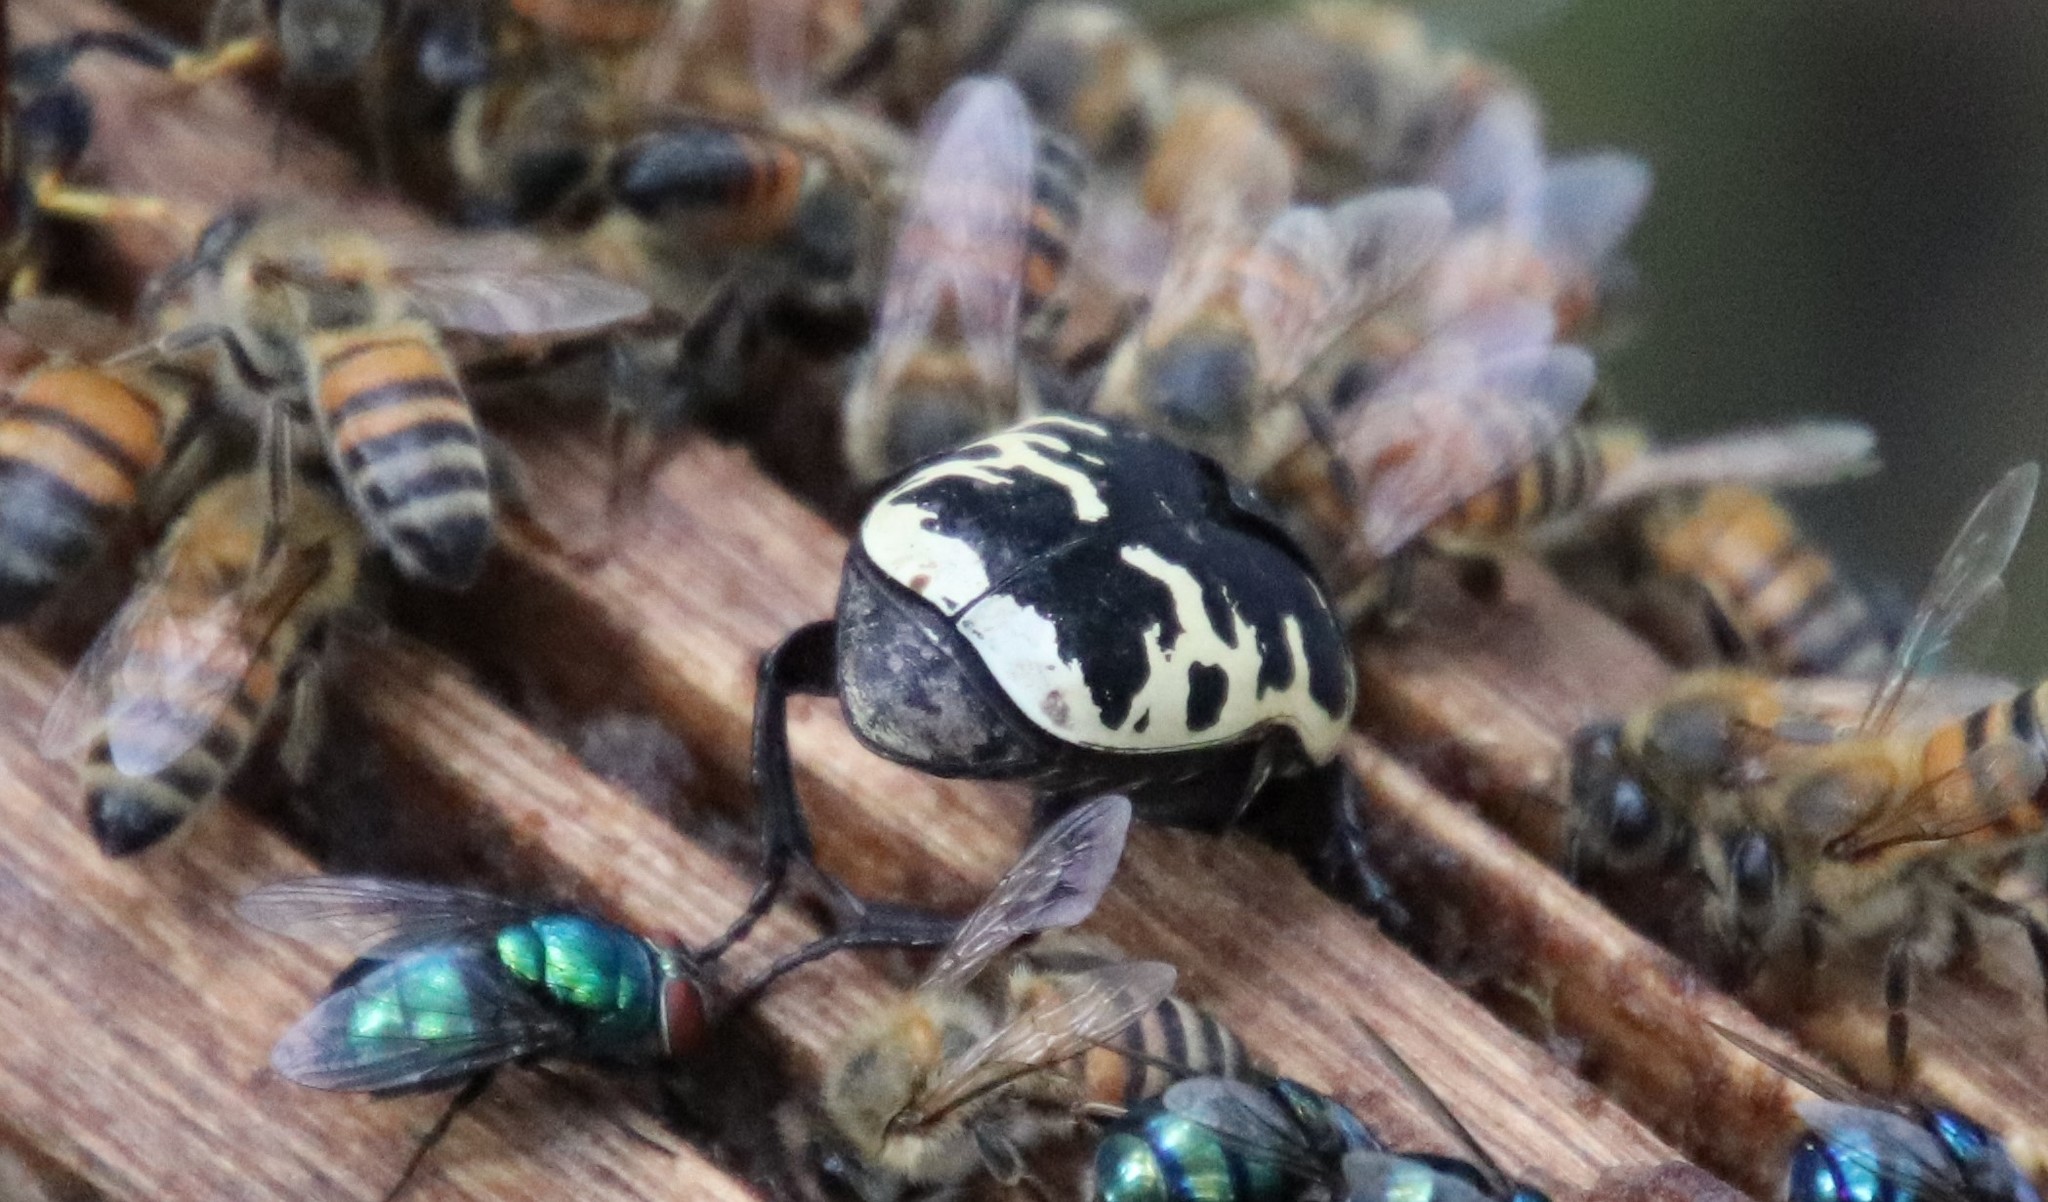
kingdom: Animalia
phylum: Arthropoda
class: Insecta
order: Coleoptera
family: Scarabaeidae
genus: Gymnetis
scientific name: Gymnetis thula
